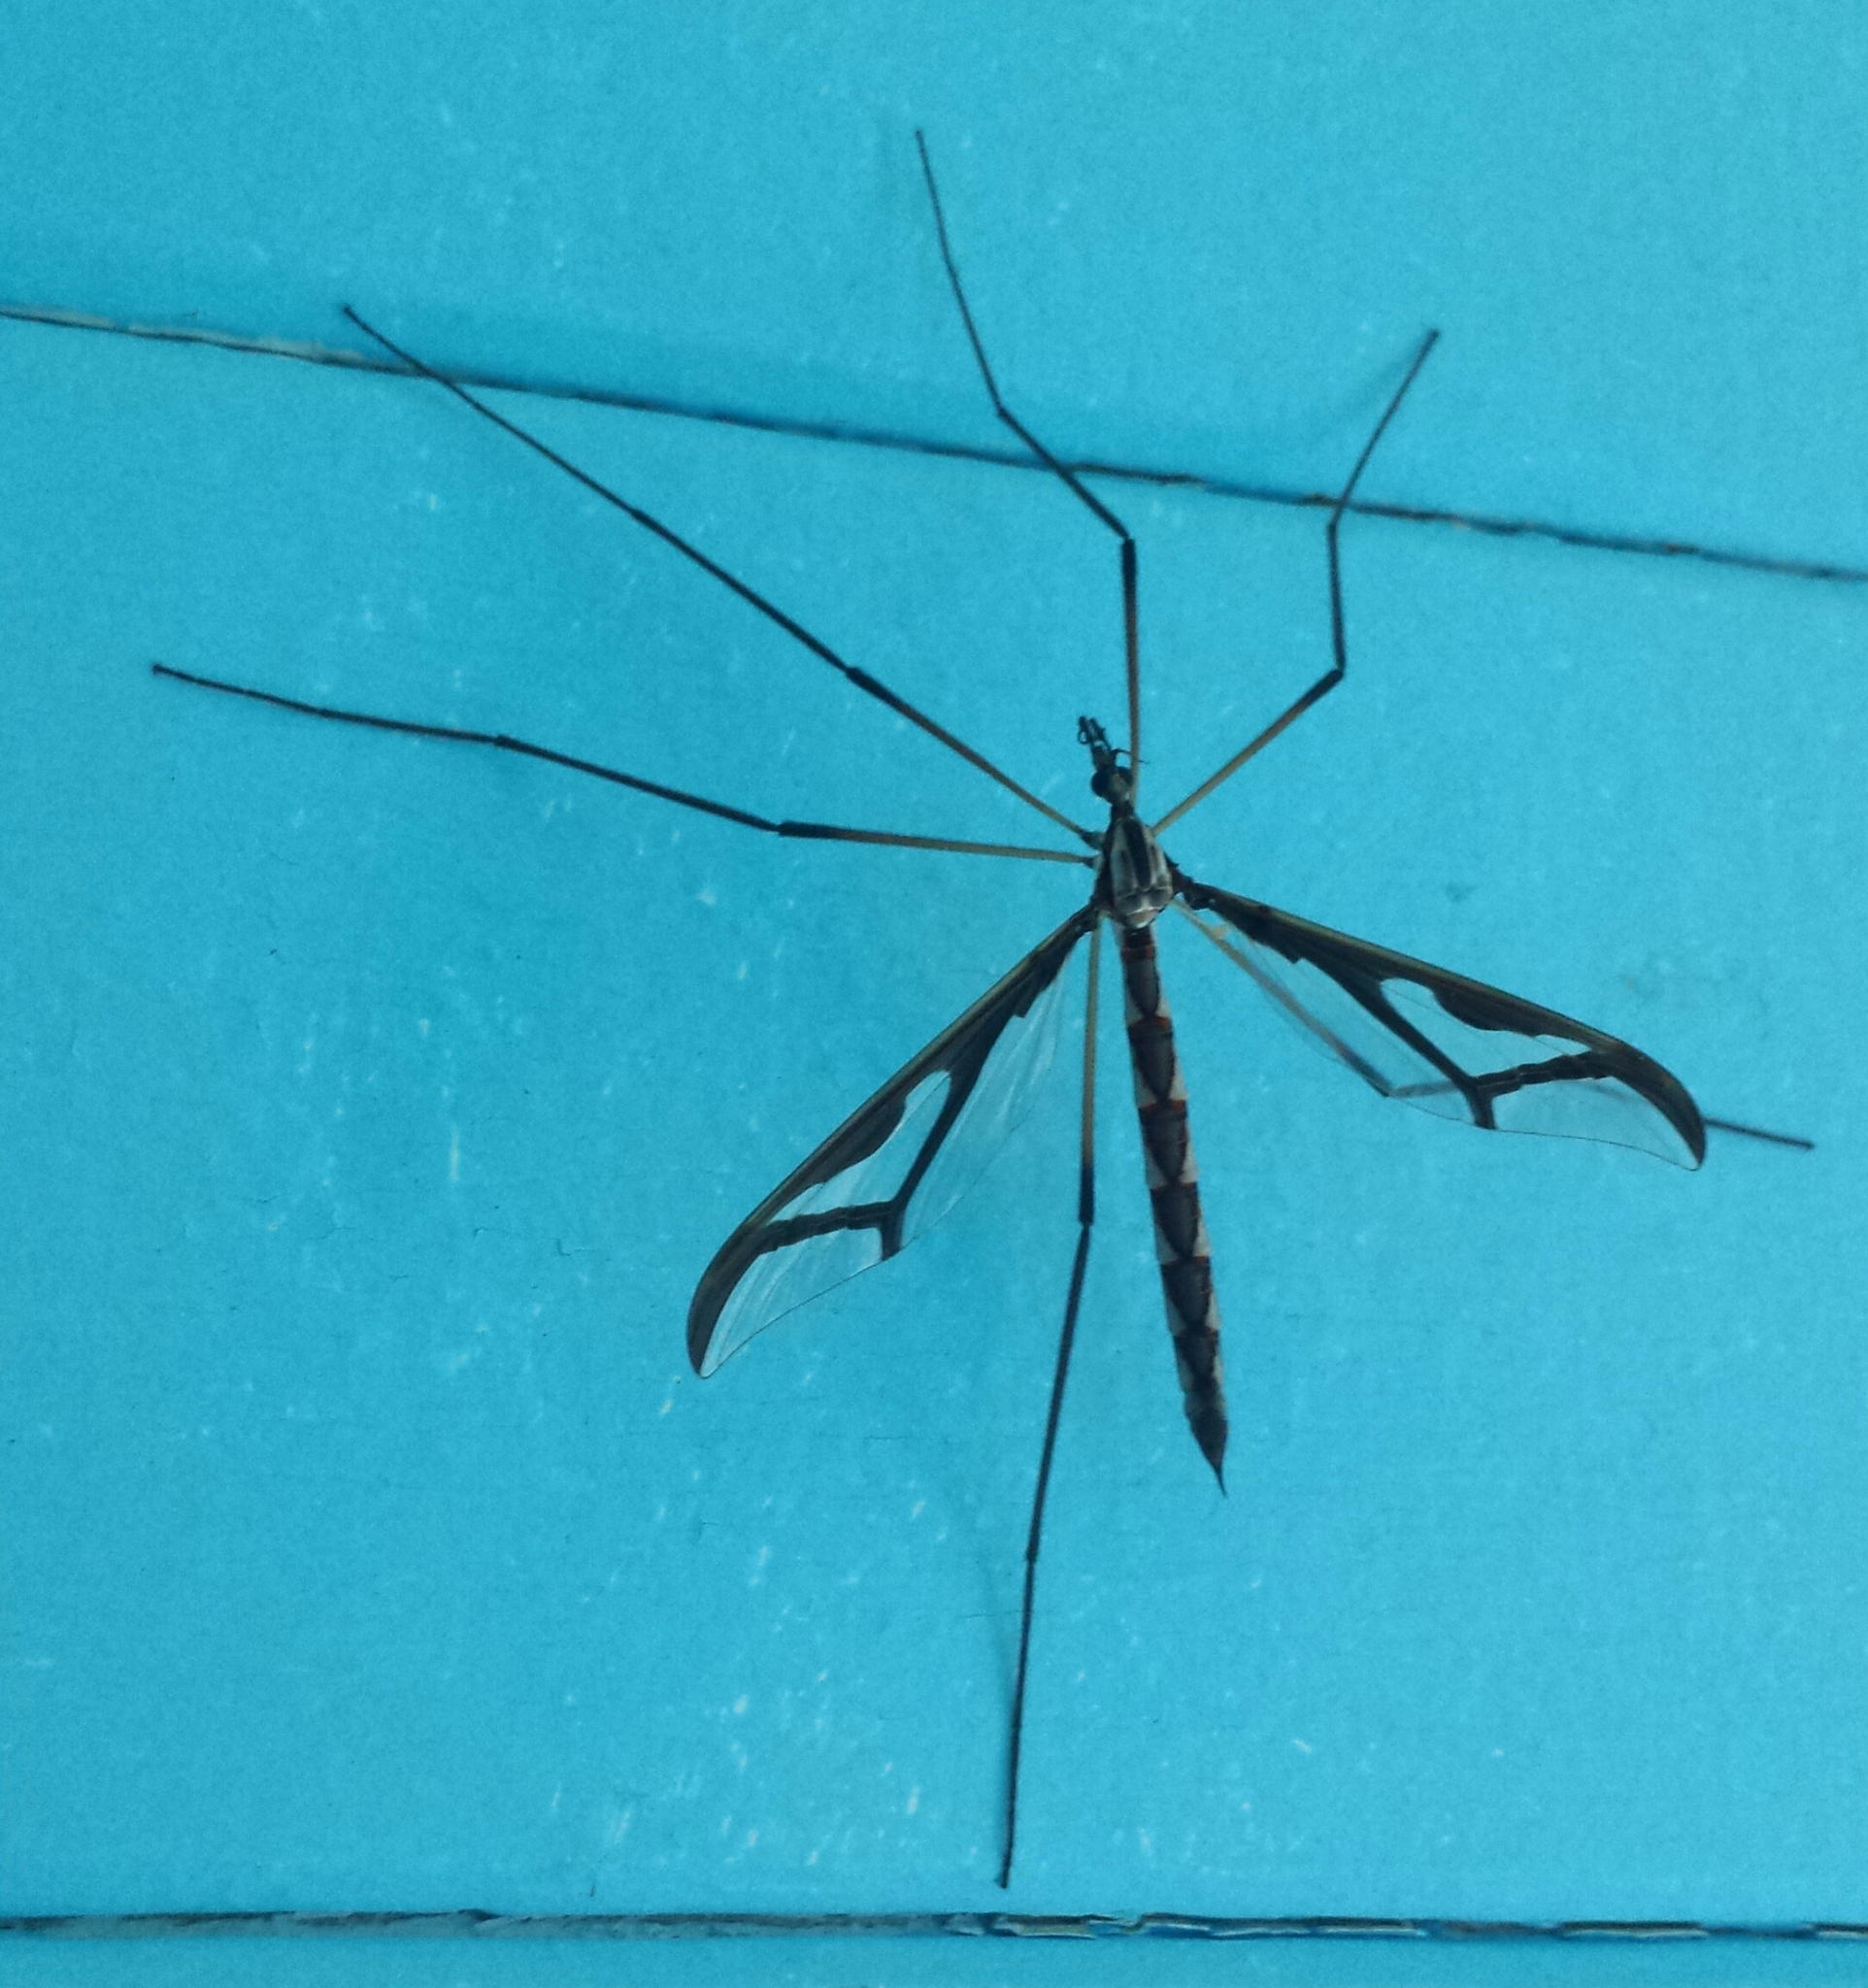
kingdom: Animalia
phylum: Arthropoda
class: Insecta
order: Diptera
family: Pediciidae
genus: Pedicia
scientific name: Pedicia albivitta
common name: Giant eastern crane fly
